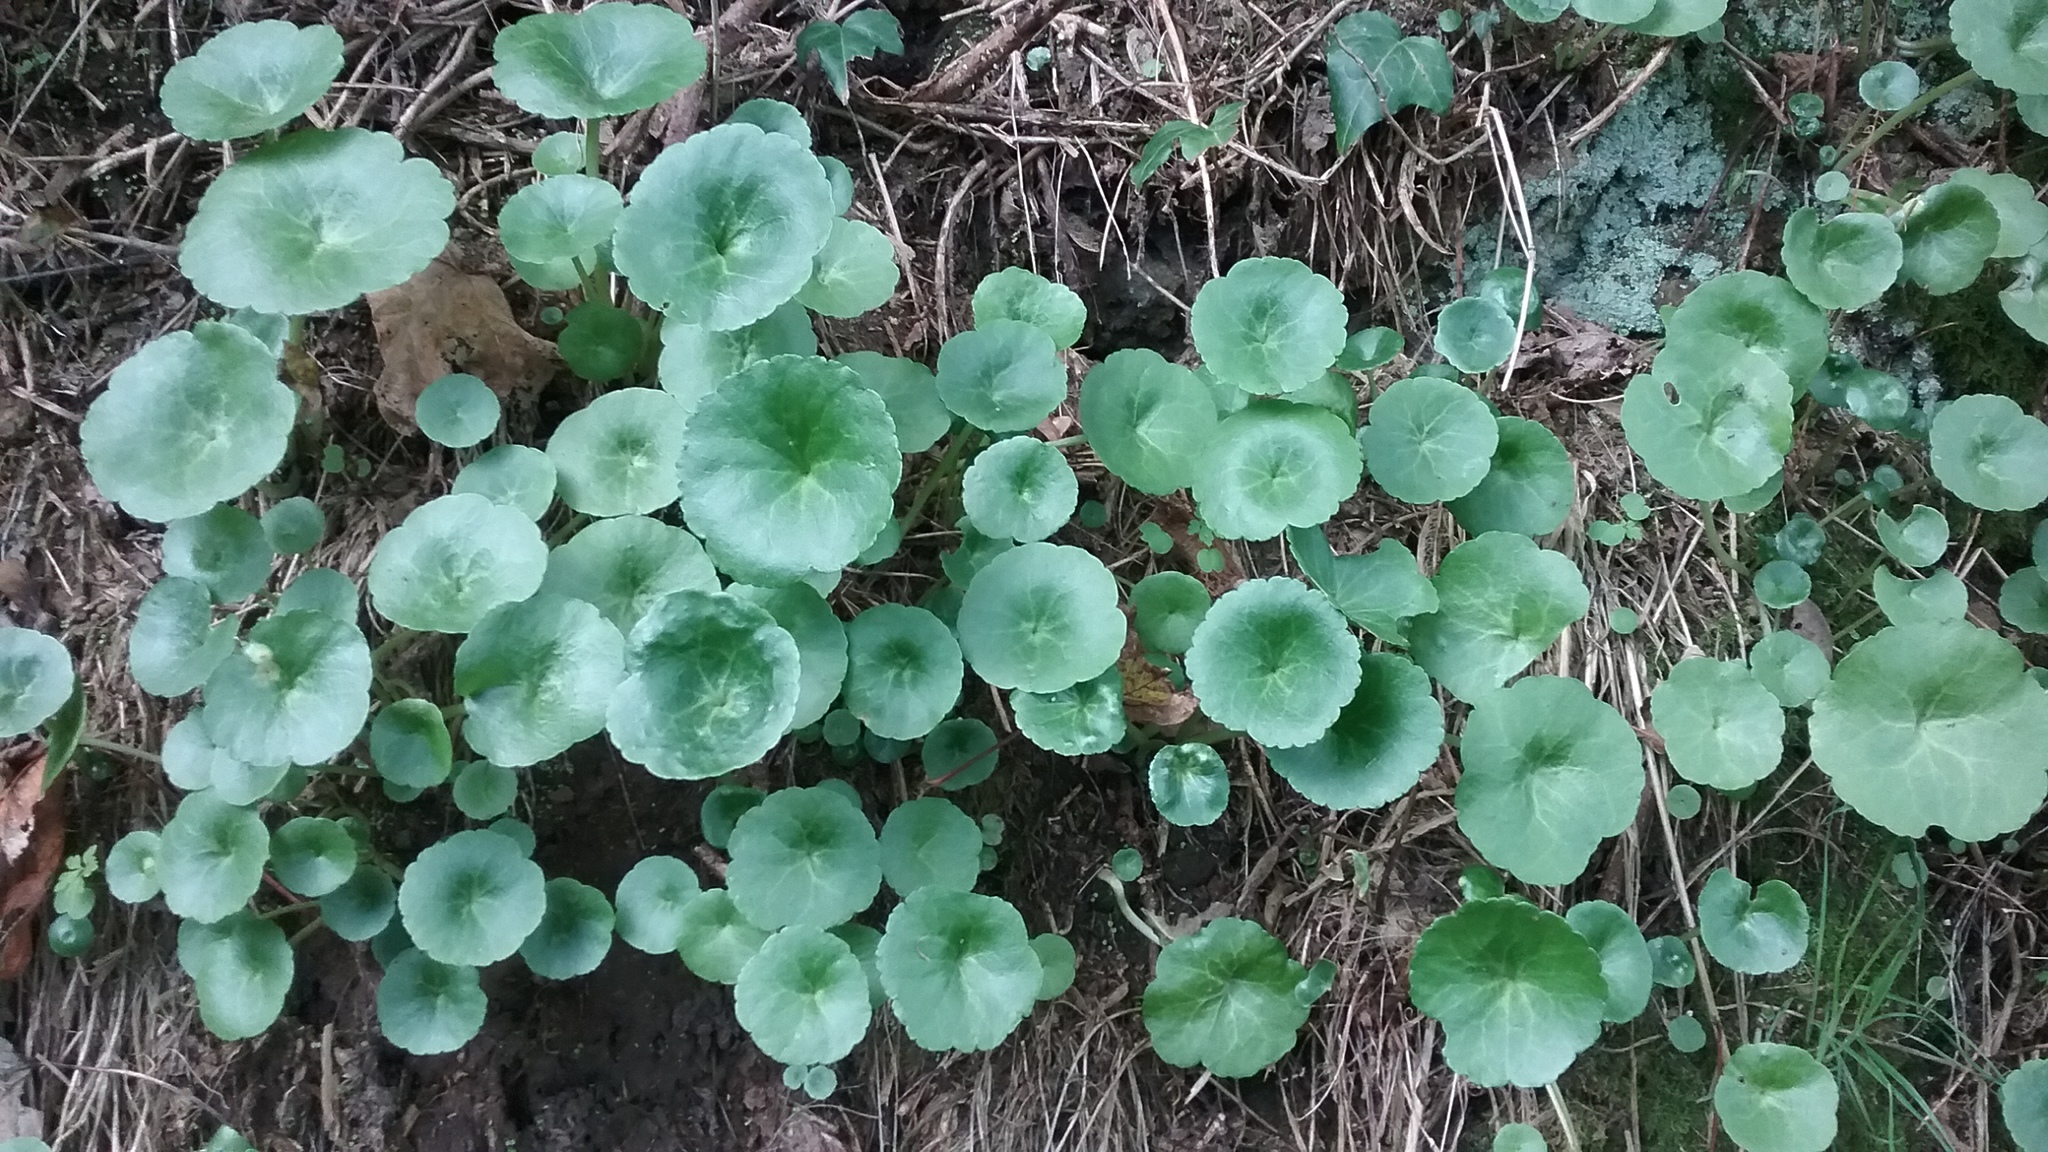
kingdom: Plantae
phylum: Tracheophyta
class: Magnoliopsida
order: Saxifragales
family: Crassulaceae
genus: Umbilicus
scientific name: Umbilicus rupestris
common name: Navelwort
